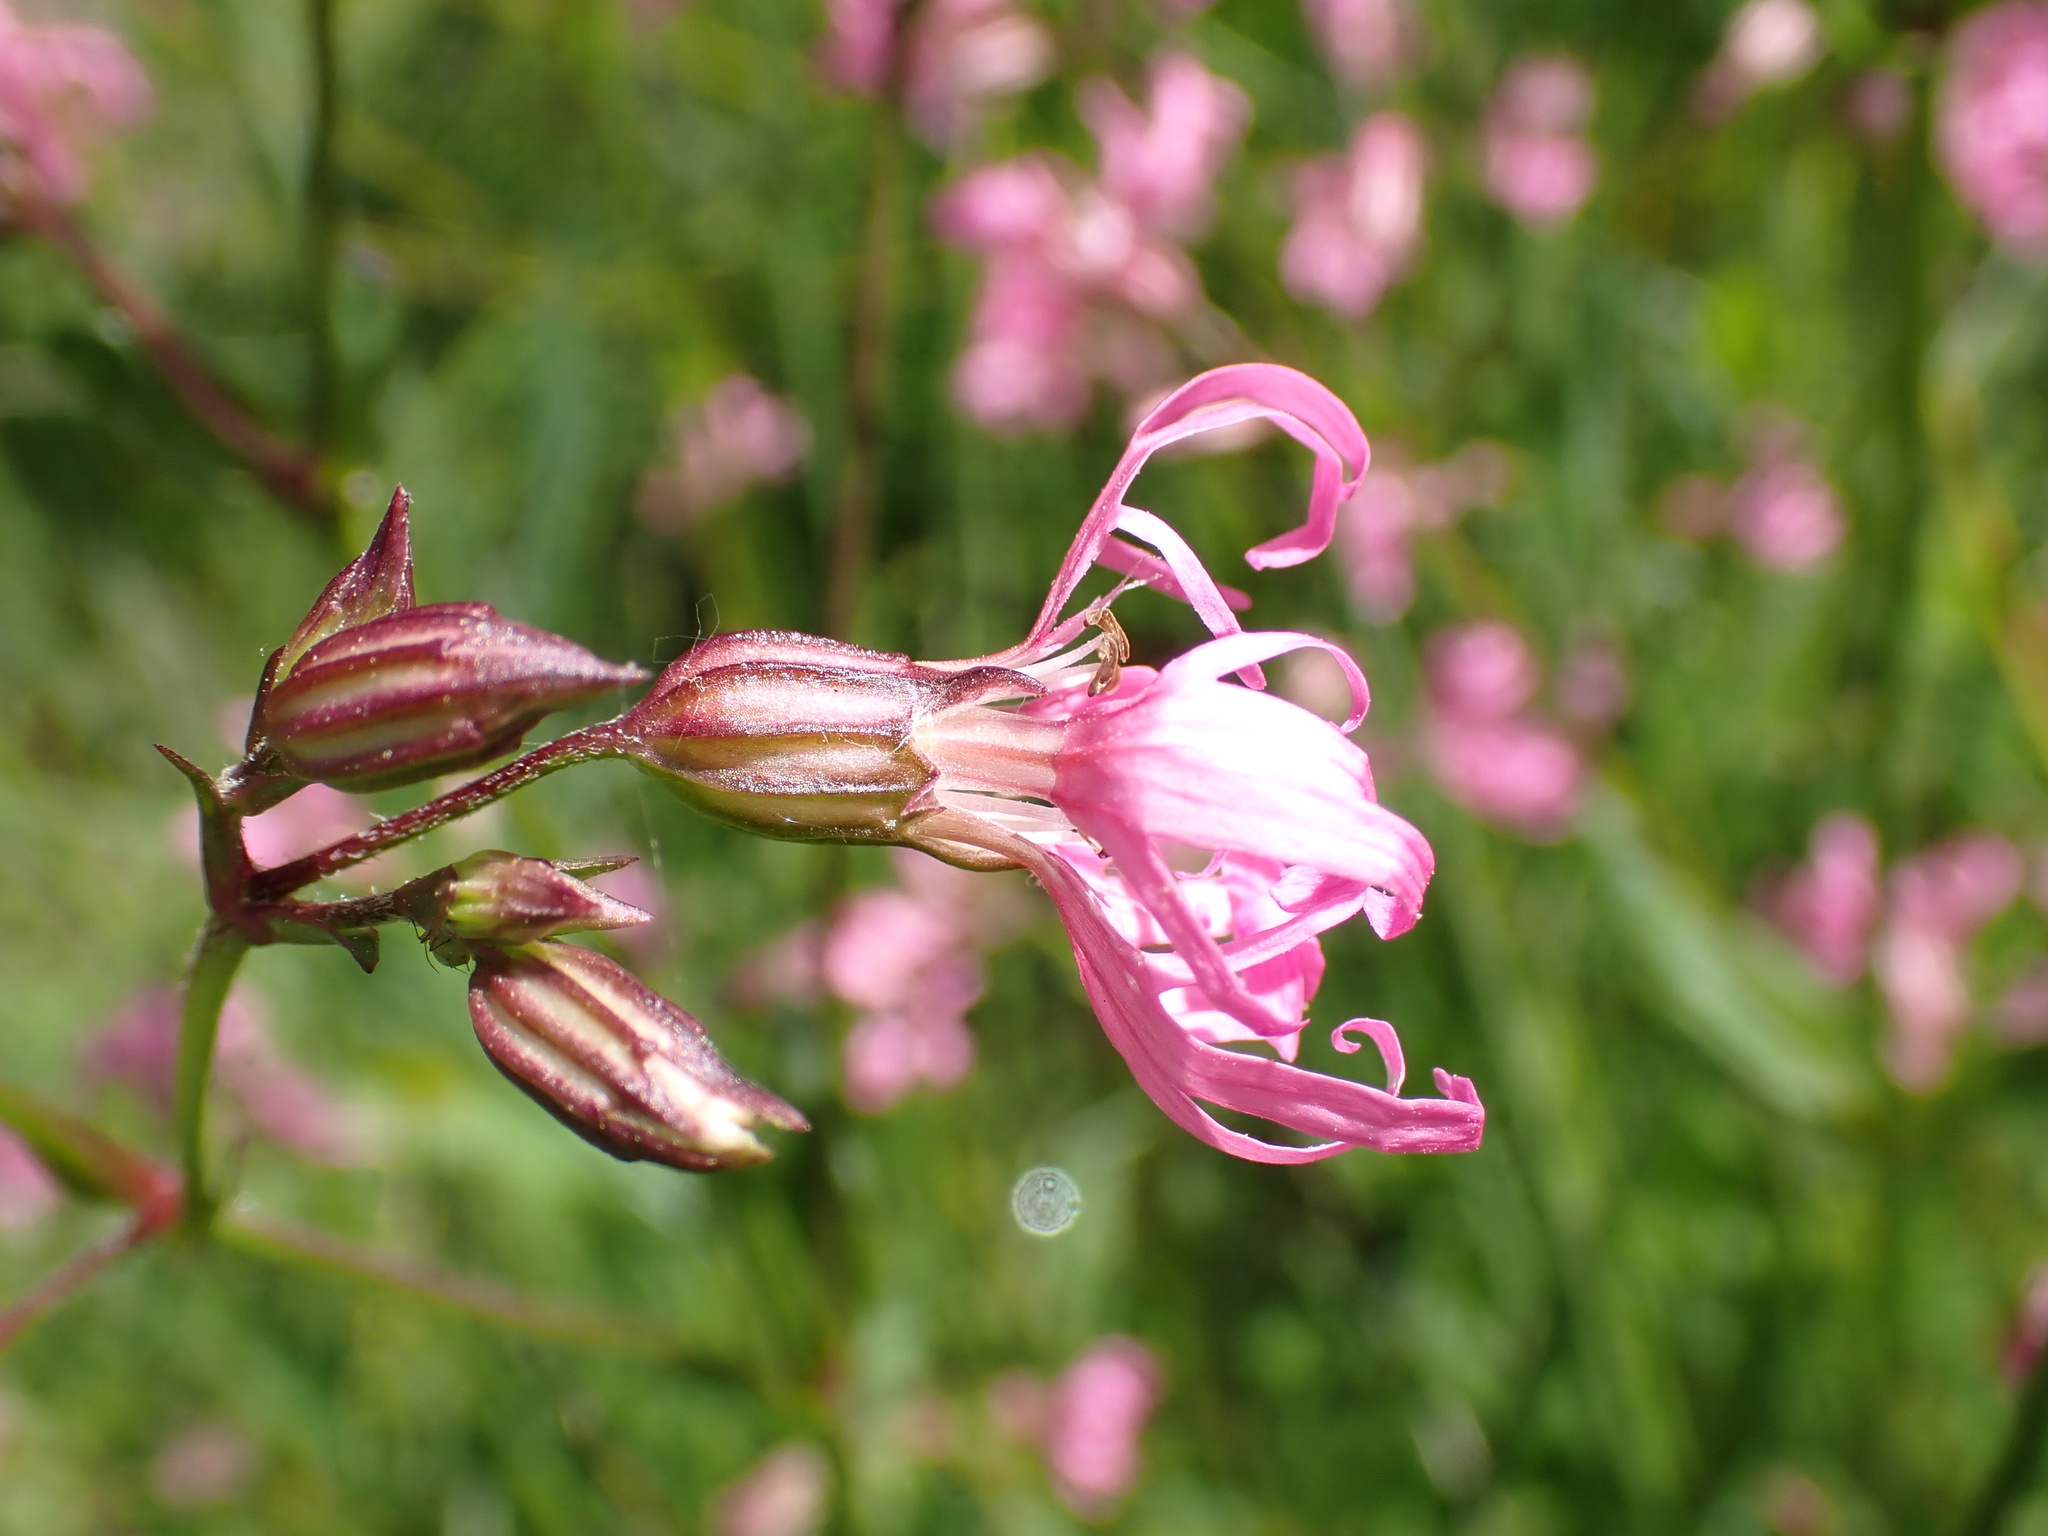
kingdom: Plantae
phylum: Tracheophyta
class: Magnoliopsida
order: Caryophyllales
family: Caryophyllaceae
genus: Silene
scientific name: Silene flos-cuculi
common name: Ragged-robin
